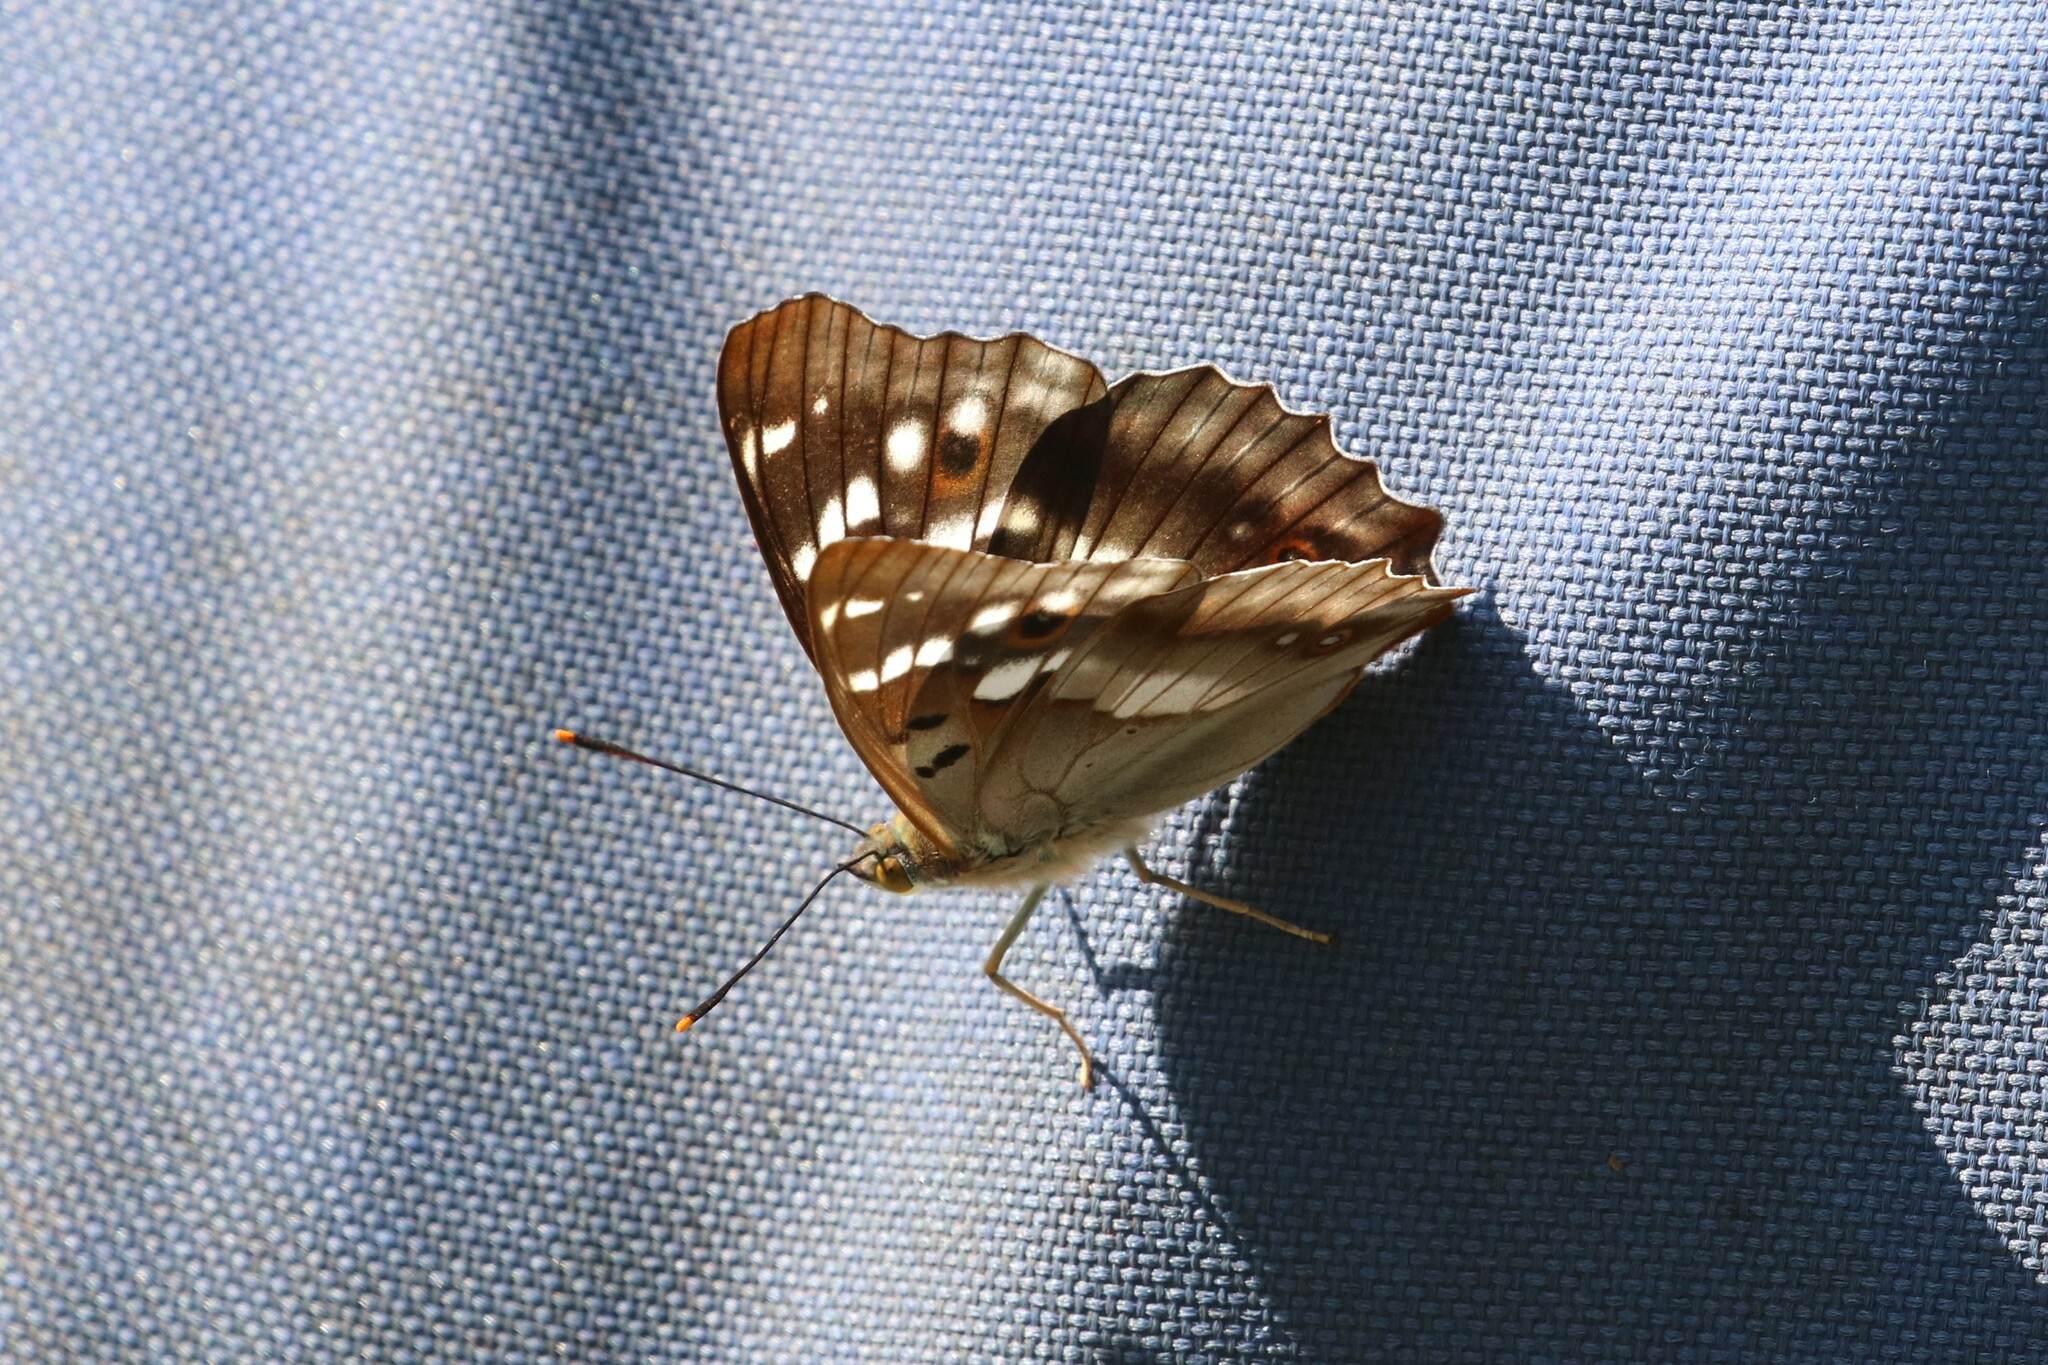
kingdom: Animalia
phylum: Arthropoda
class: Insecta
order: Lepidoptera
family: Nymphalidae
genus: Apatura
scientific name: Apatura ilia
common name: Lesser purple emperor
